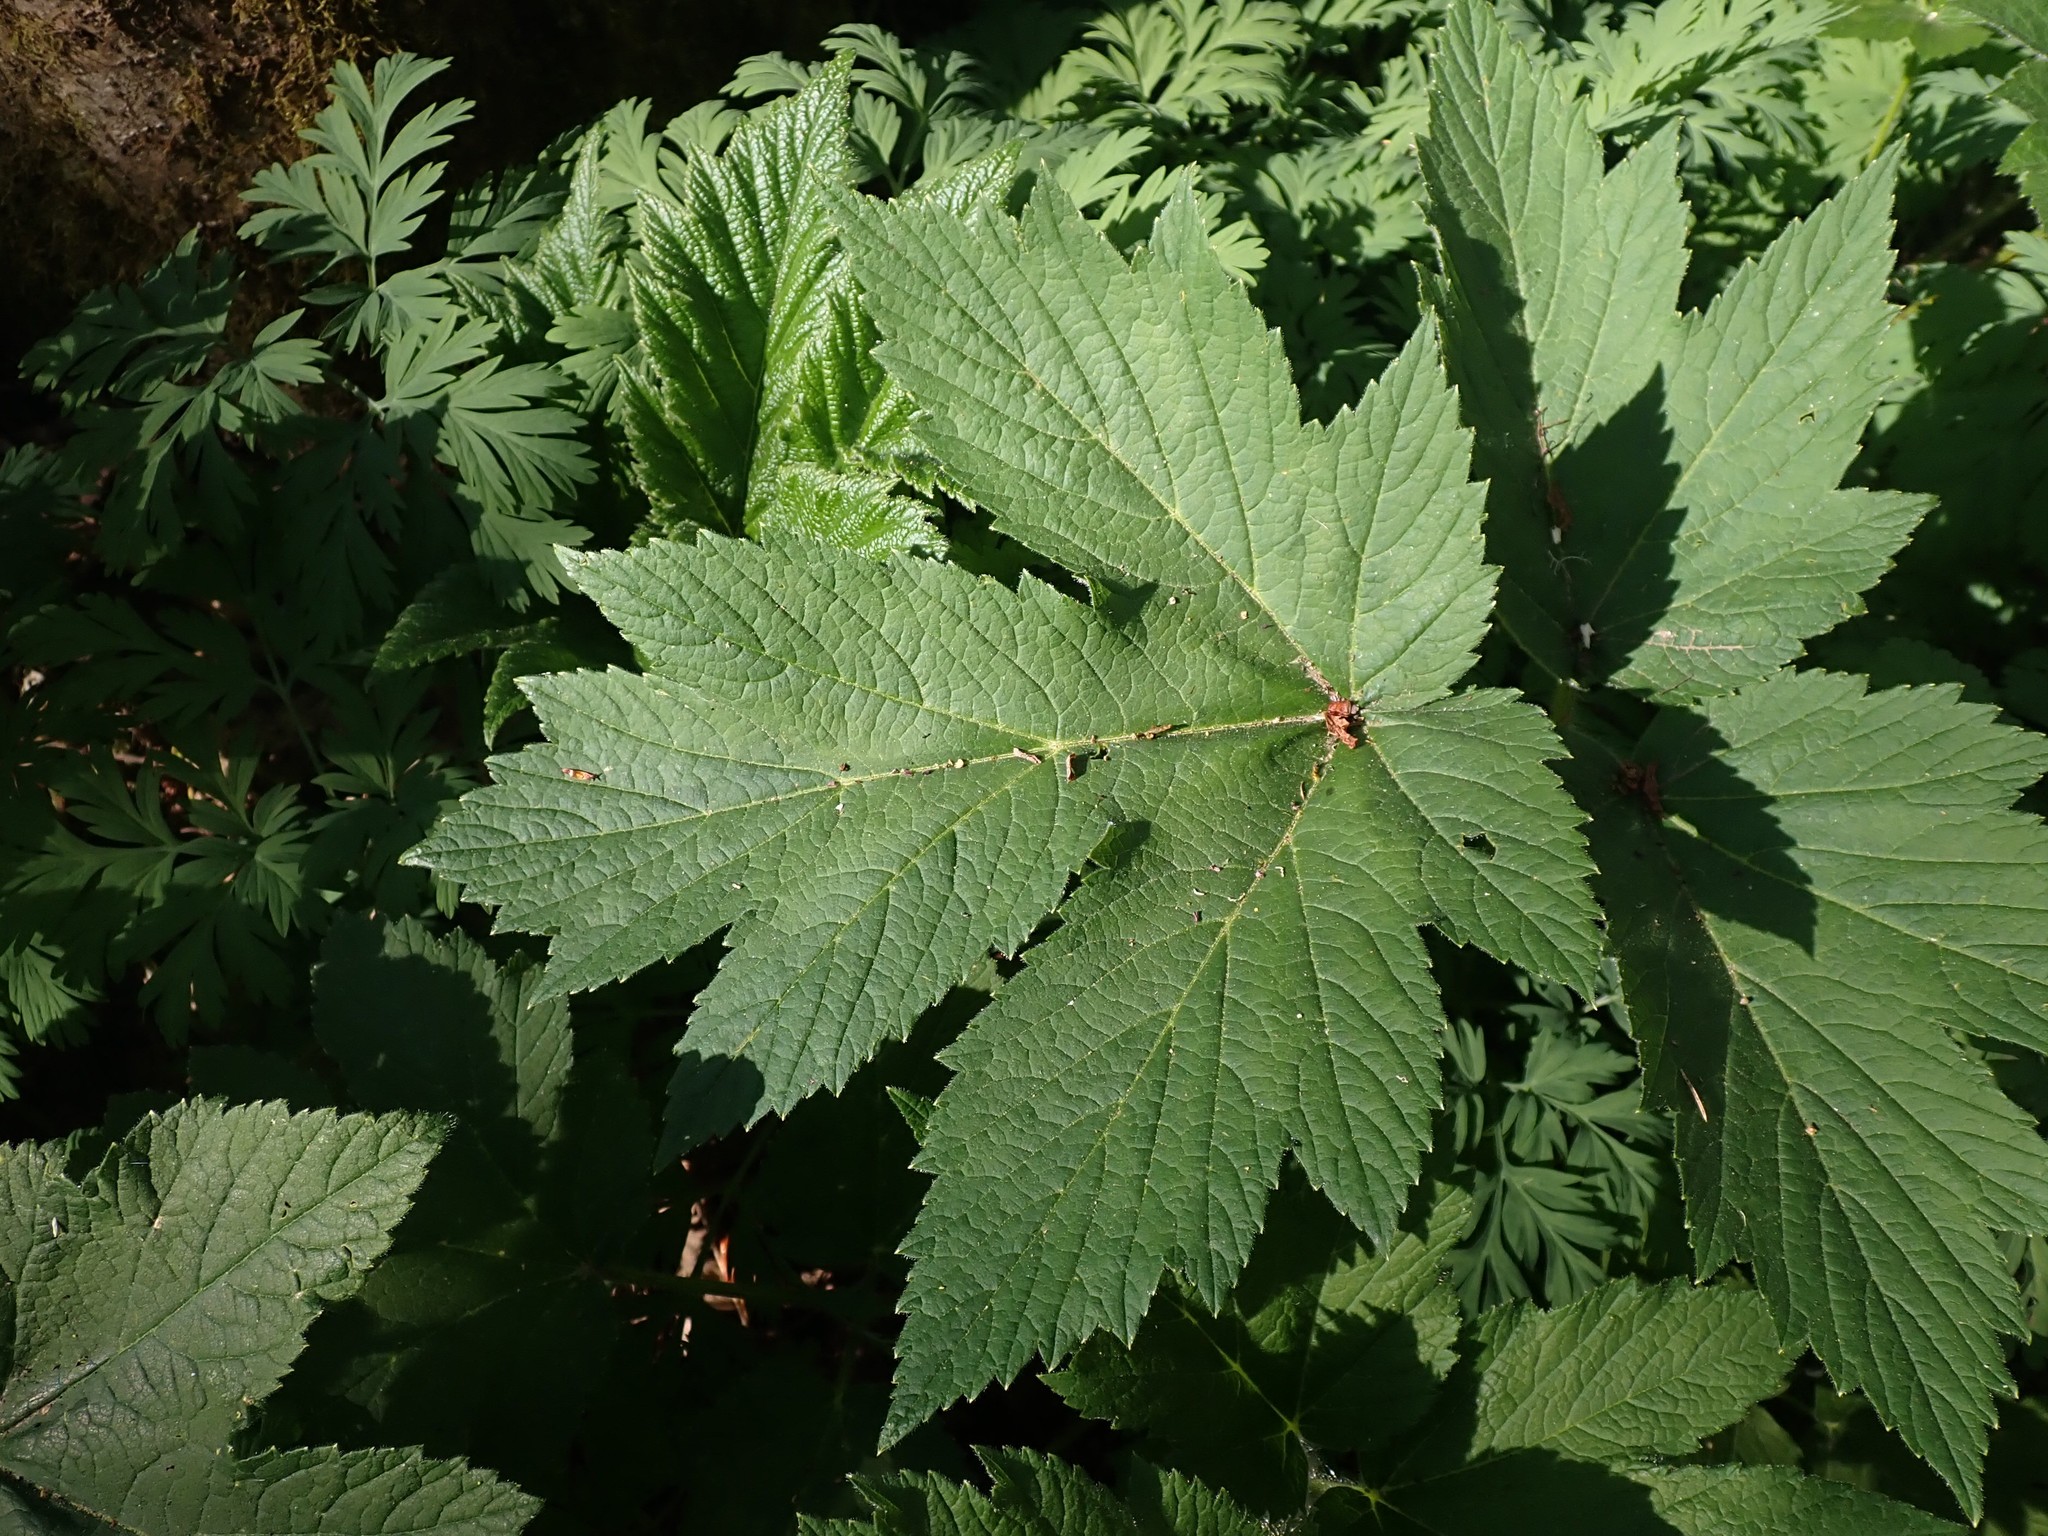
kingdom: Plantae
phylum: Tracheophyta
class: Magnoliopsida
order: Apiales
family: Apiaceae
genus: Heracleum
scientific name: Heracleum maximum
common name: American cow parsnip
